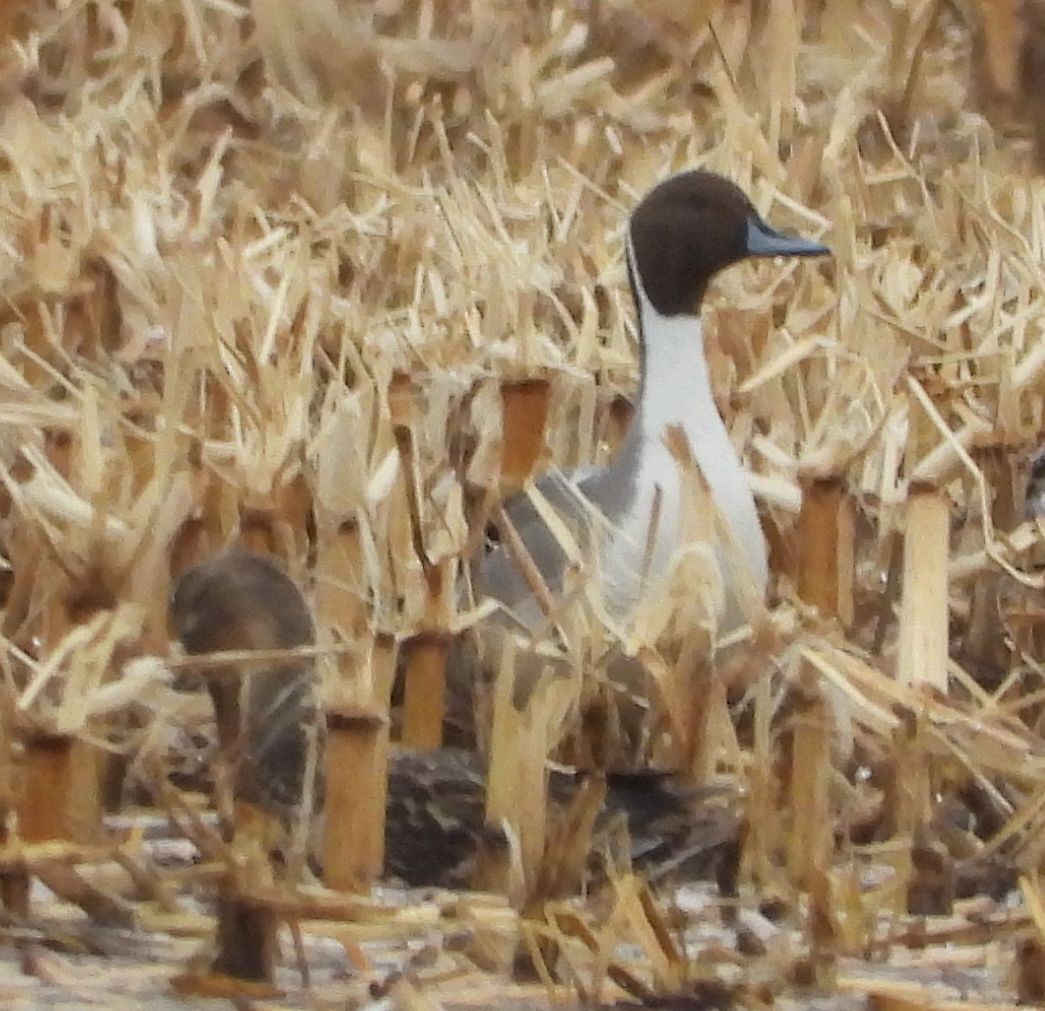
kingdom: Animalia
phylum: Chordata
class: Aves
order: Anseriformes
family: Anatidae
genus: Anas
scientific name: Anas acuta
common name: Northern pintail
